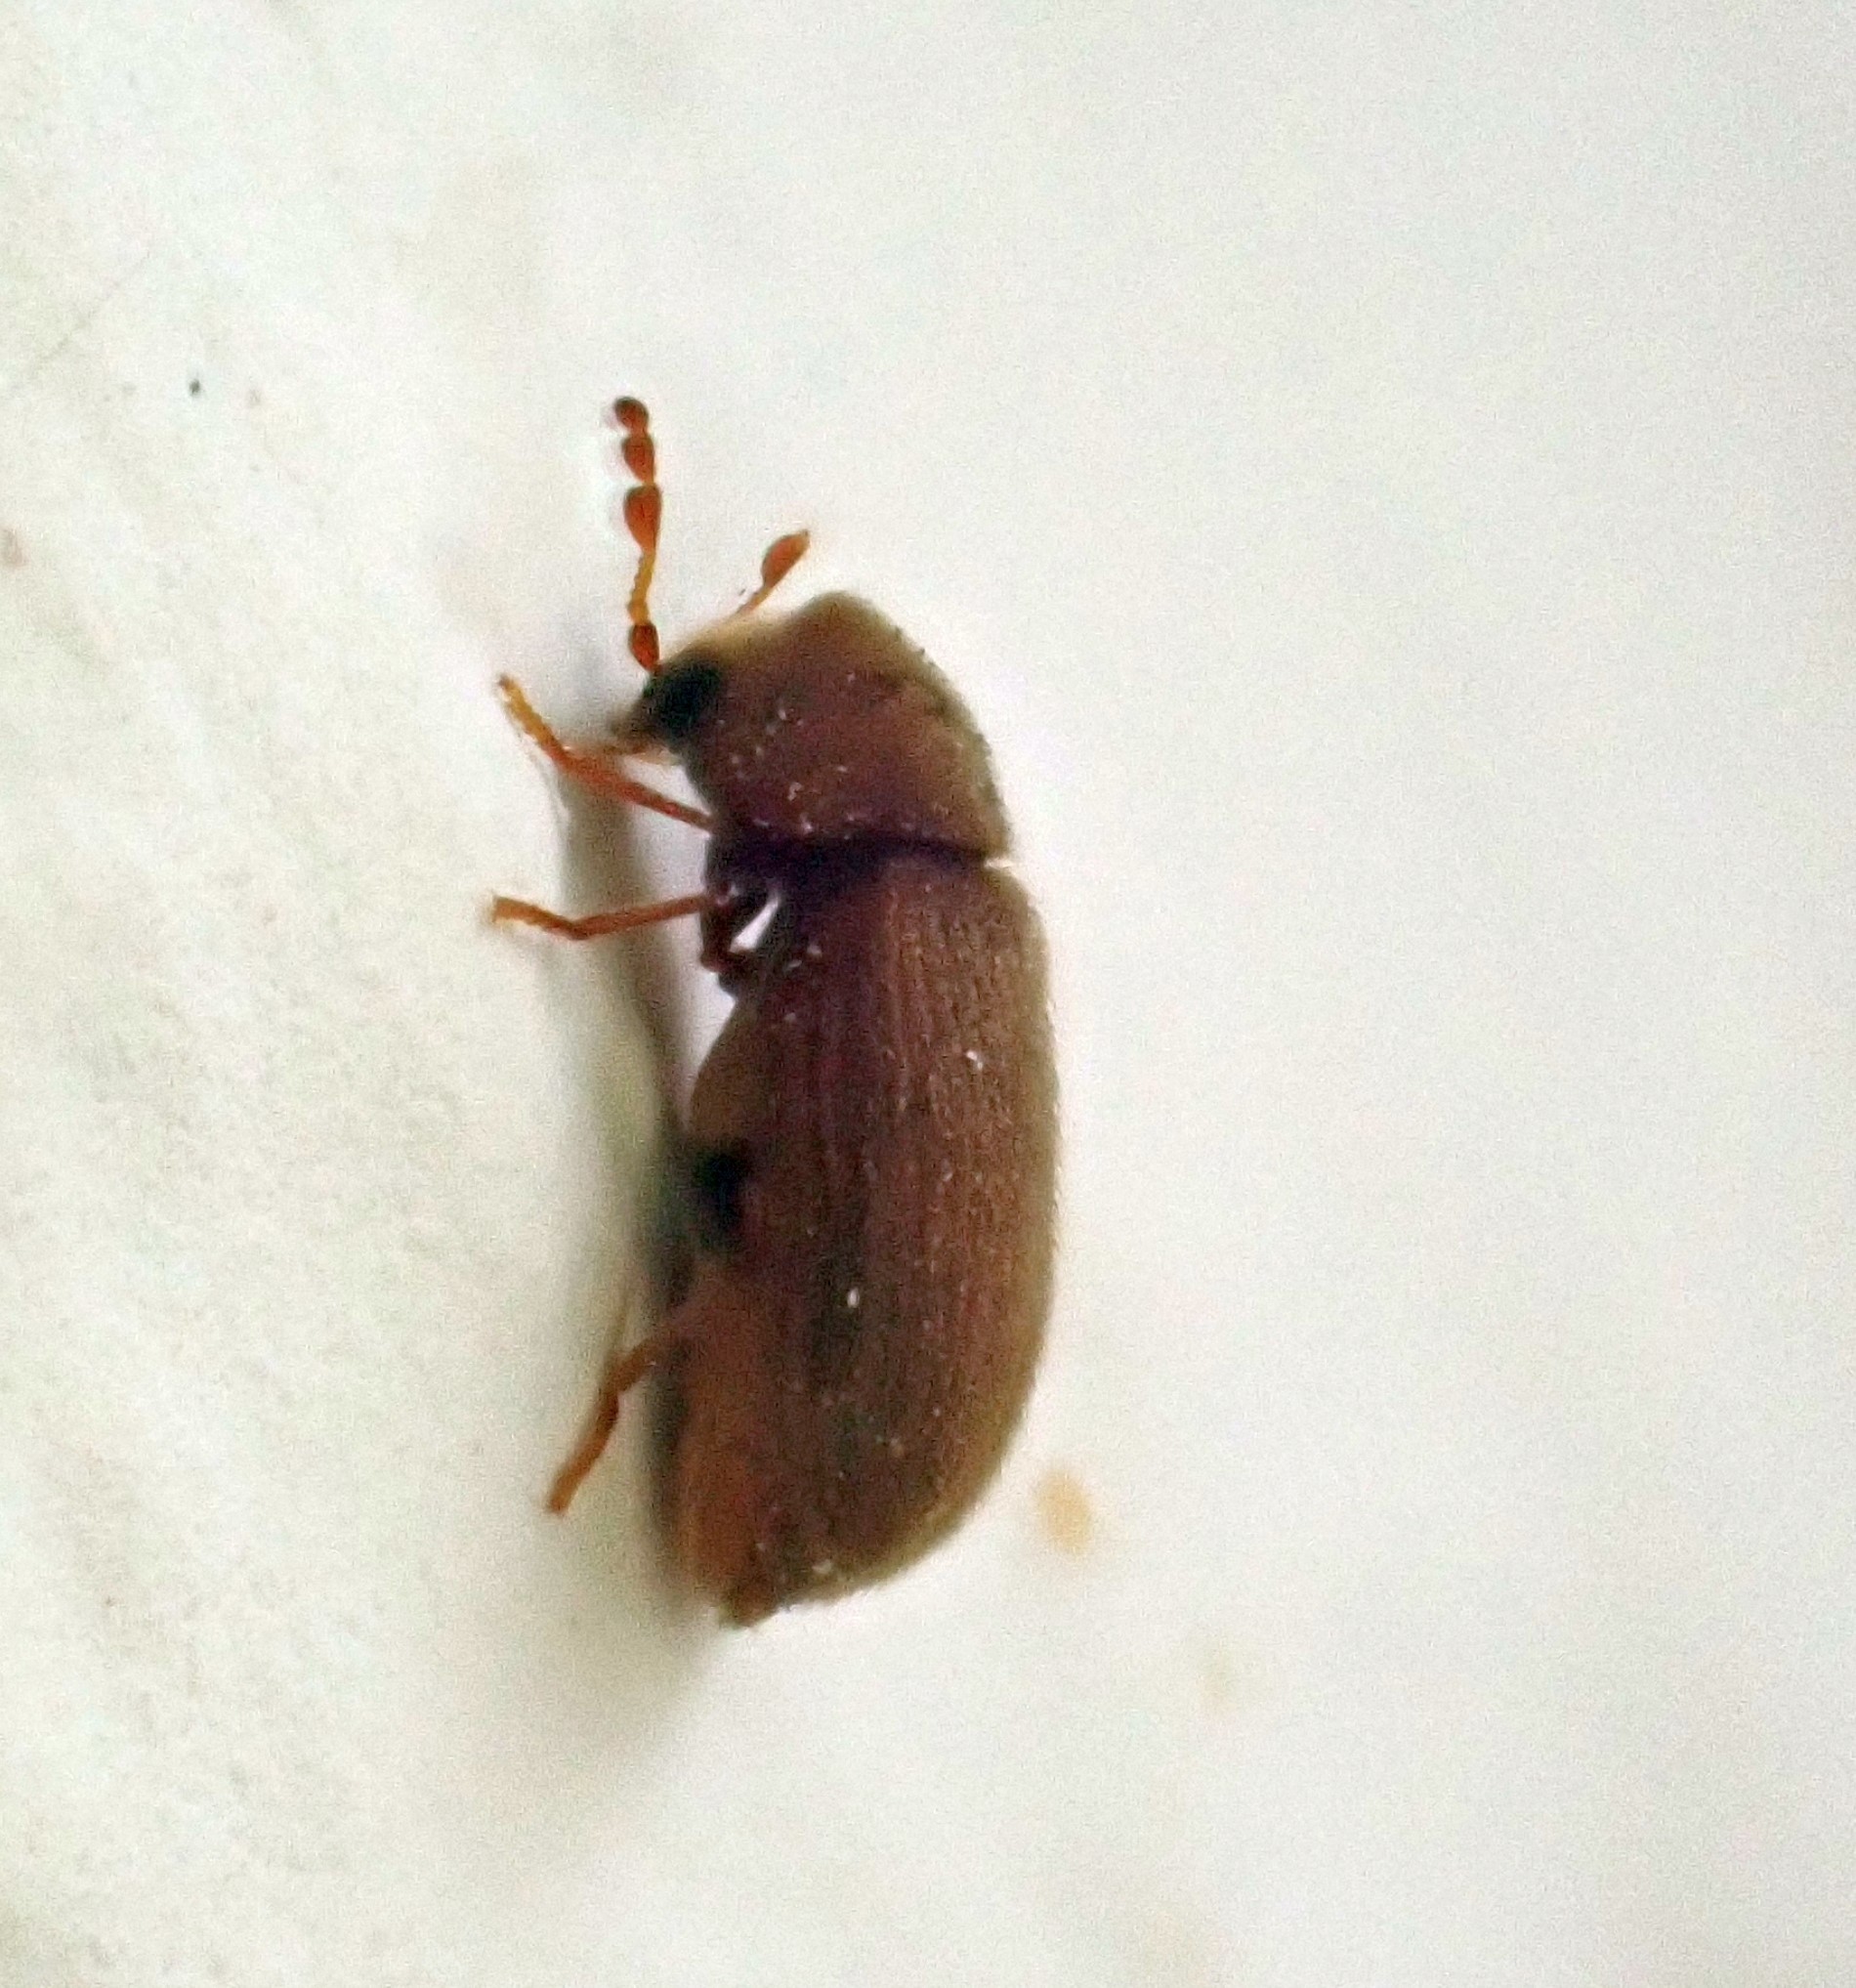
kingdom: Animalia
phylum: Arthropoda
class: Insecta
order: Coleoptera
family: Anobiidae
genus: Stegobium
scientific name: Stegobium paniceum
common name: Drugstore beetle
